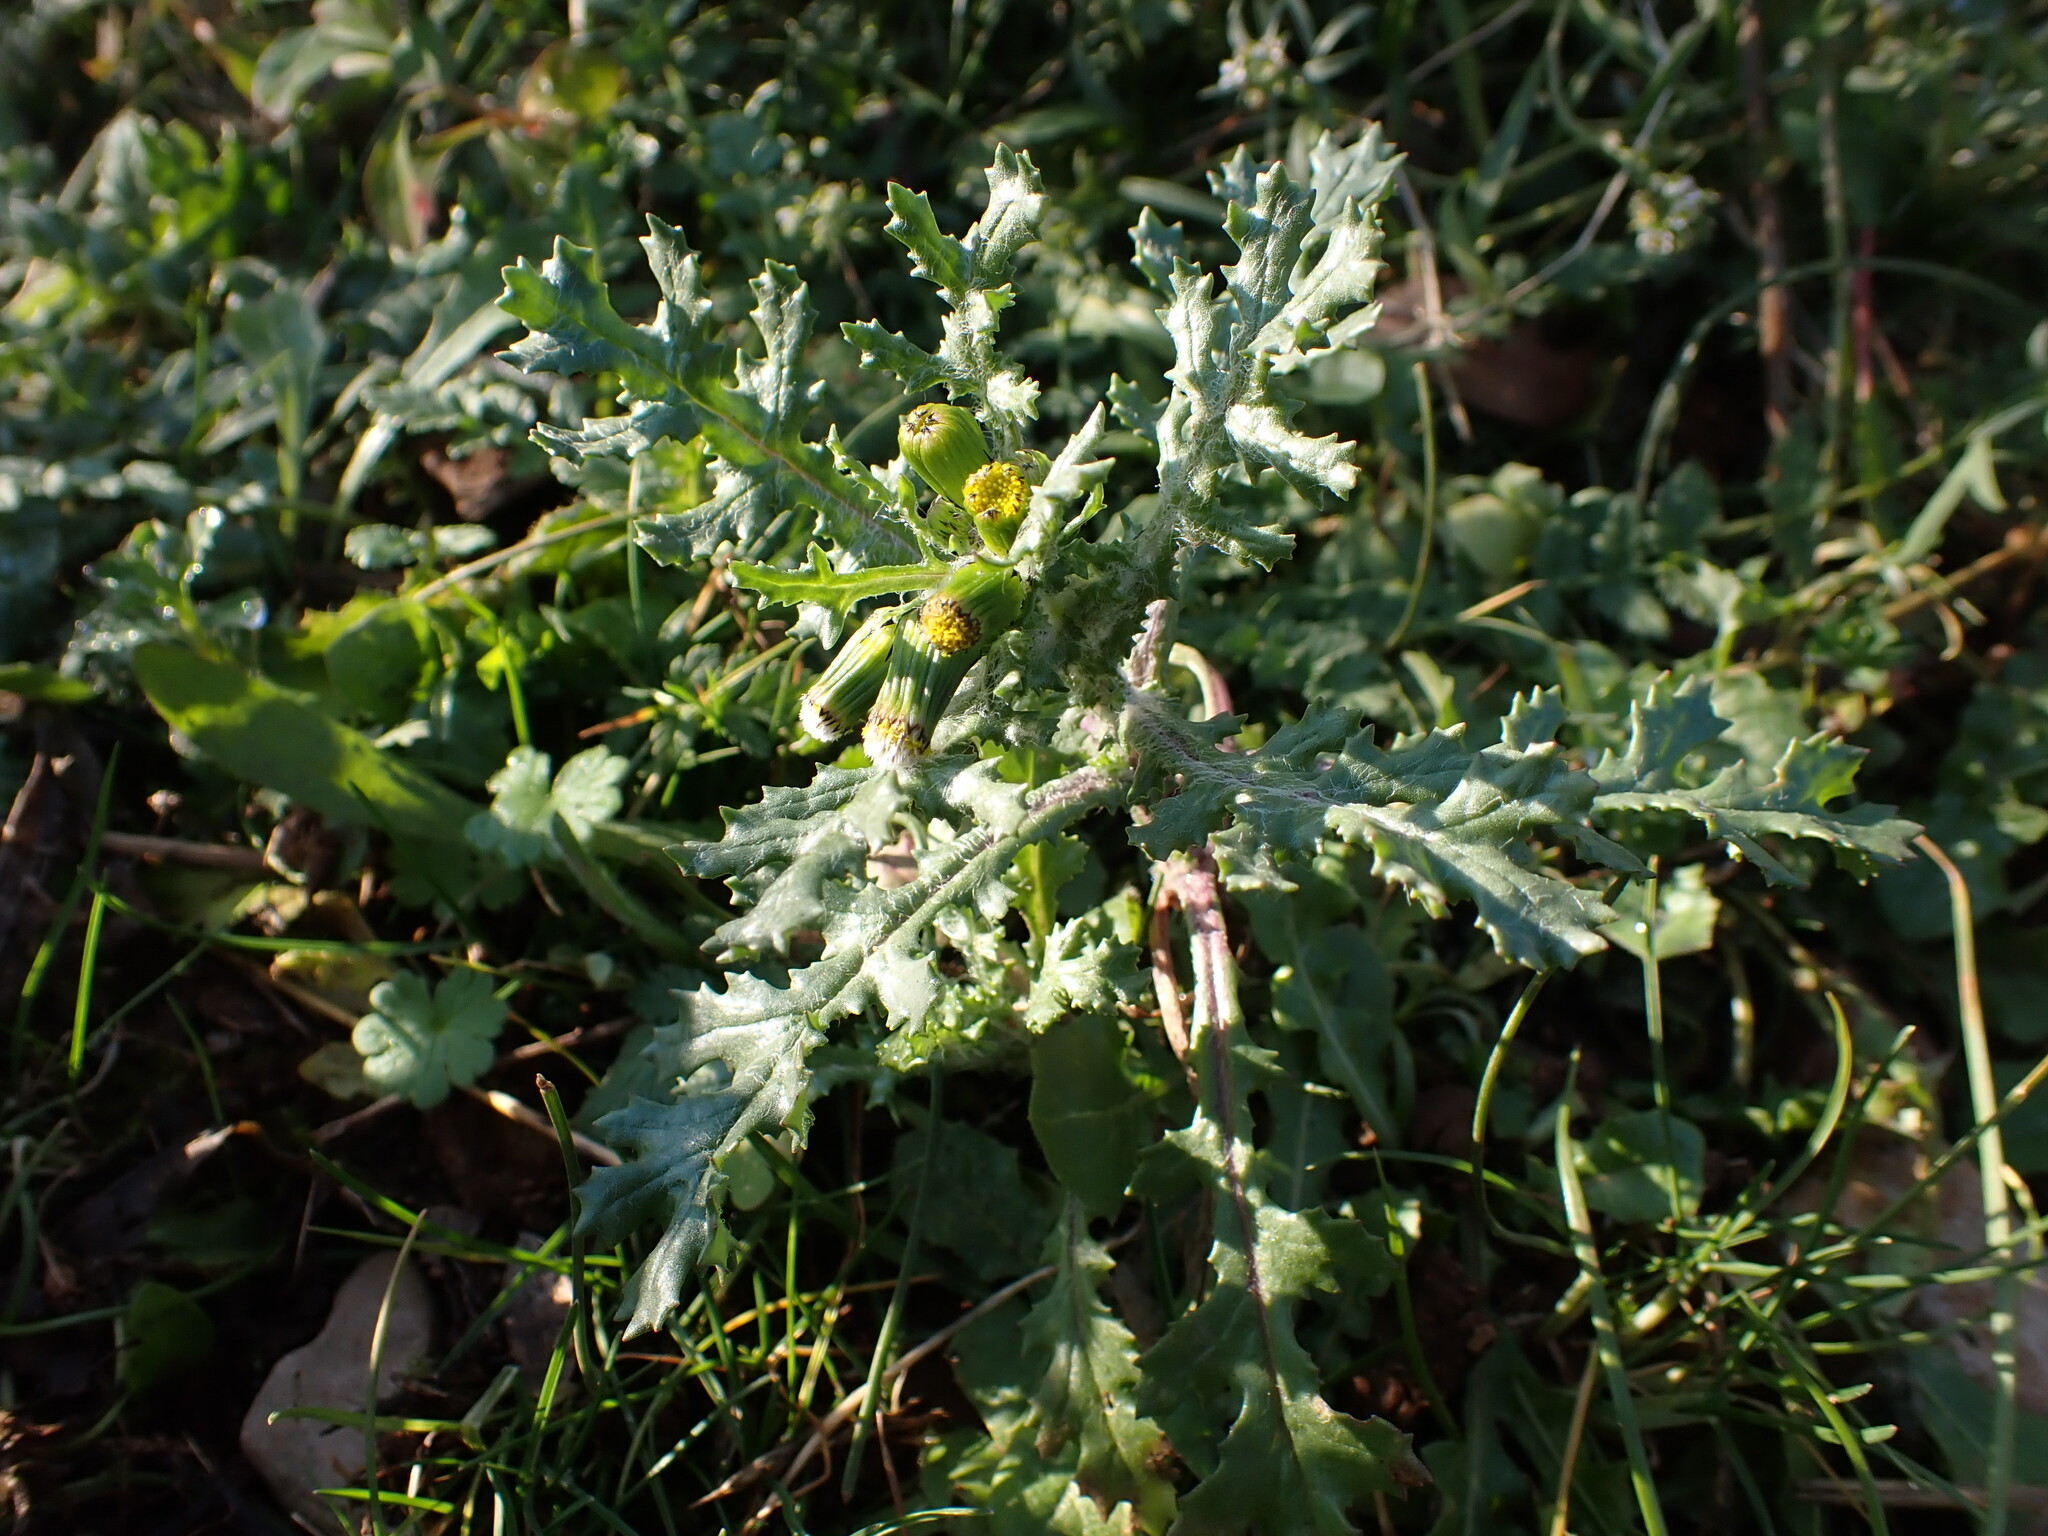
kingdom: Plantae
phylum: Tracheophyta
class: Magnoliopsida
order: Asterales
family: Asteraceae
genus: Senecio
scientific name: Senecio vulgaris
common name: Old-man-in-the-spring
